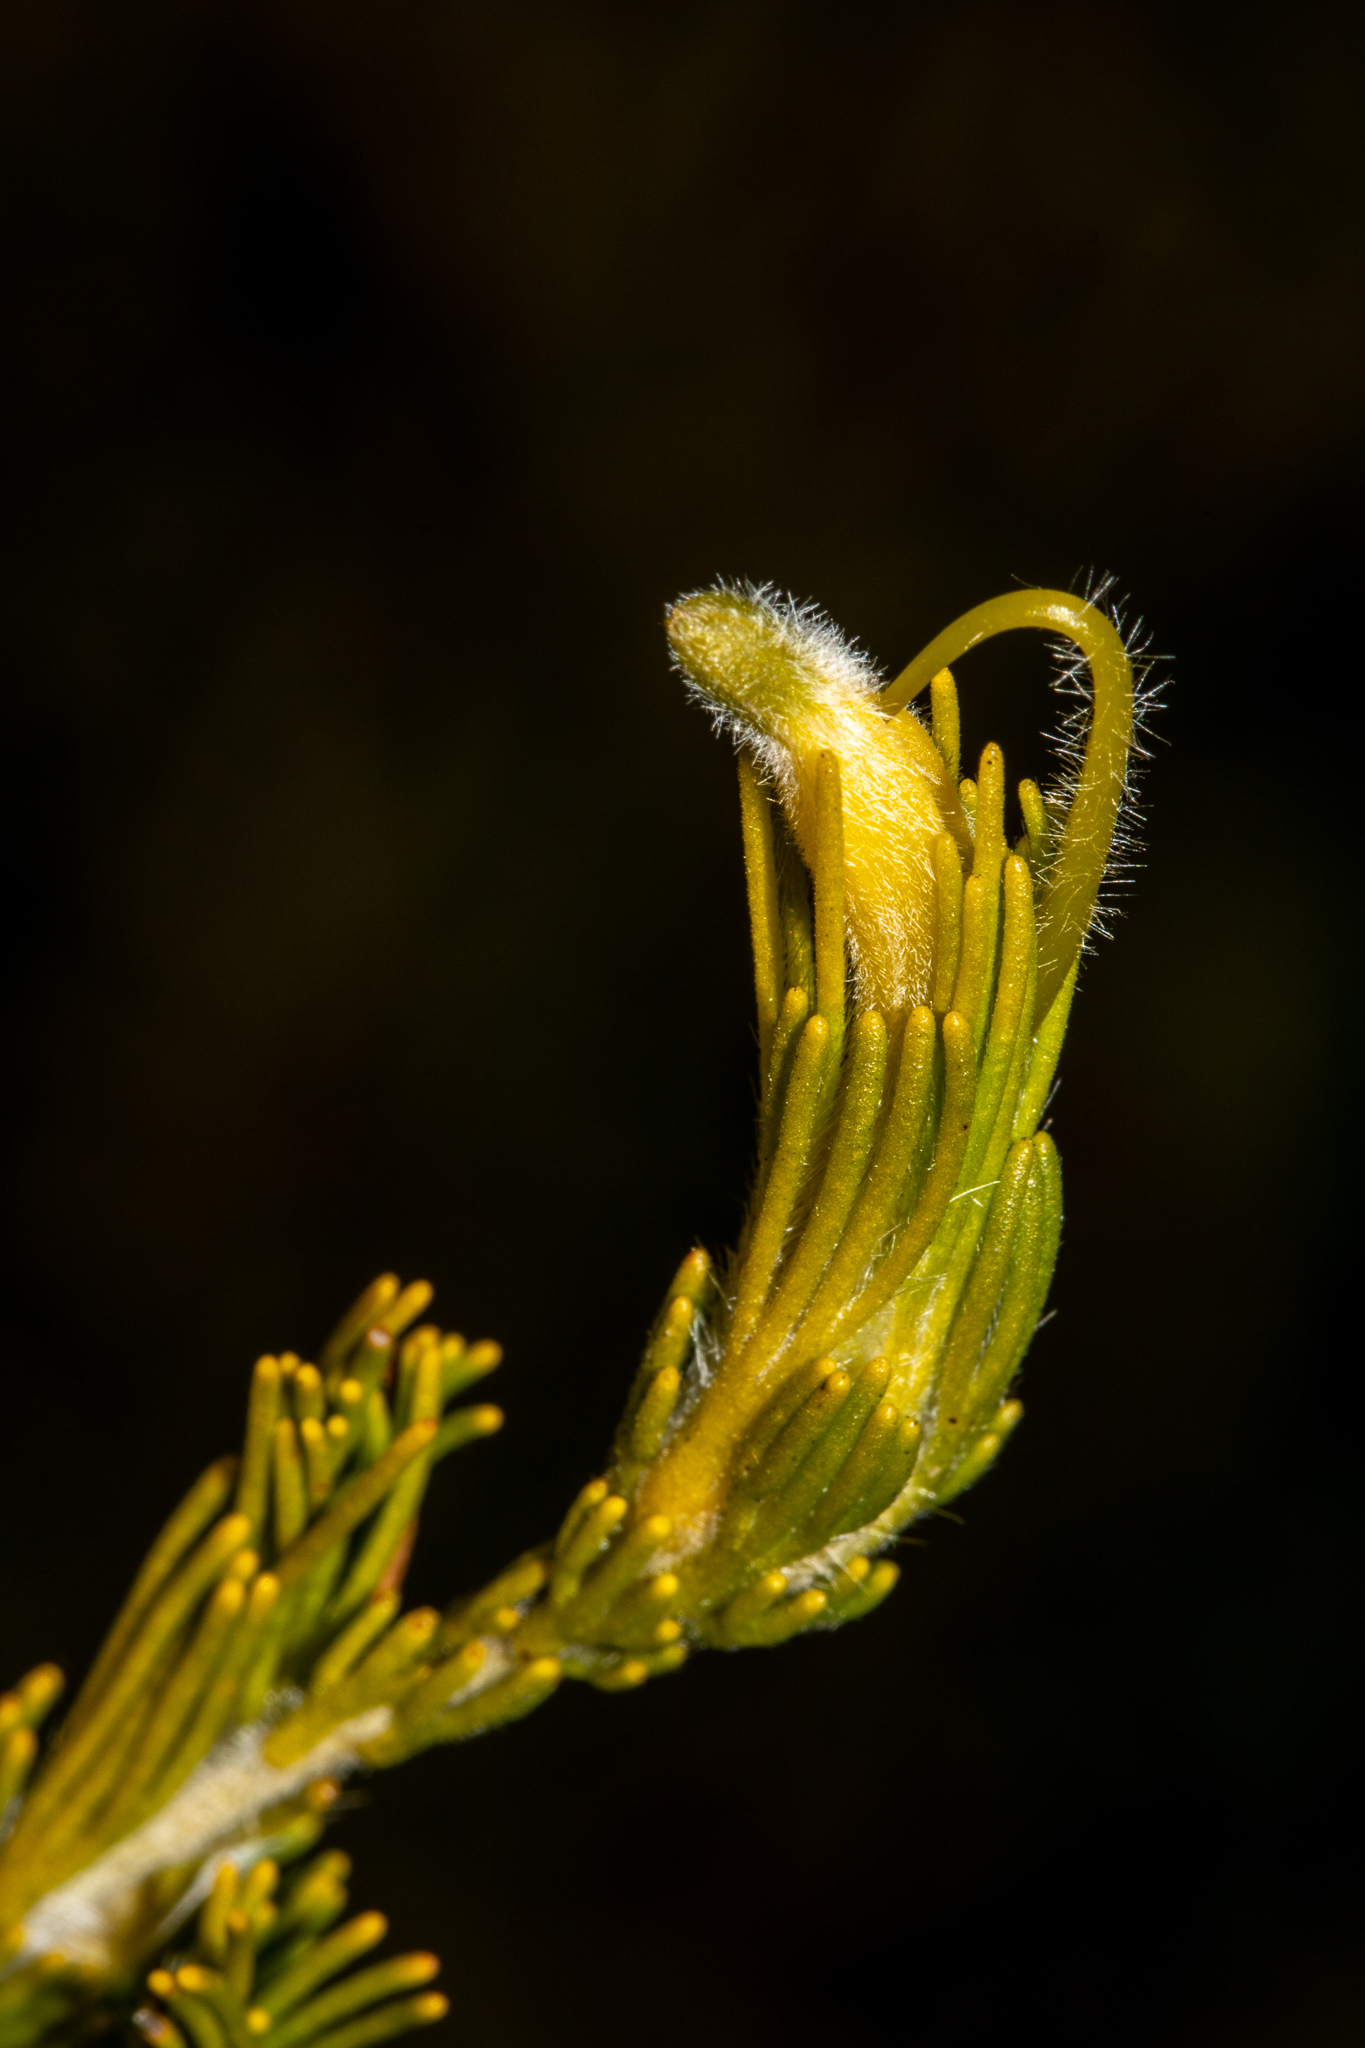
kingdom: Plantae
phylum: Tracheophyta
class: Magnoliopsida
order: Proteales
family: Proteaceae
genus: Adenanthos
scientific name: Adenanthos terminalis
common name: Yellow gland-flower
